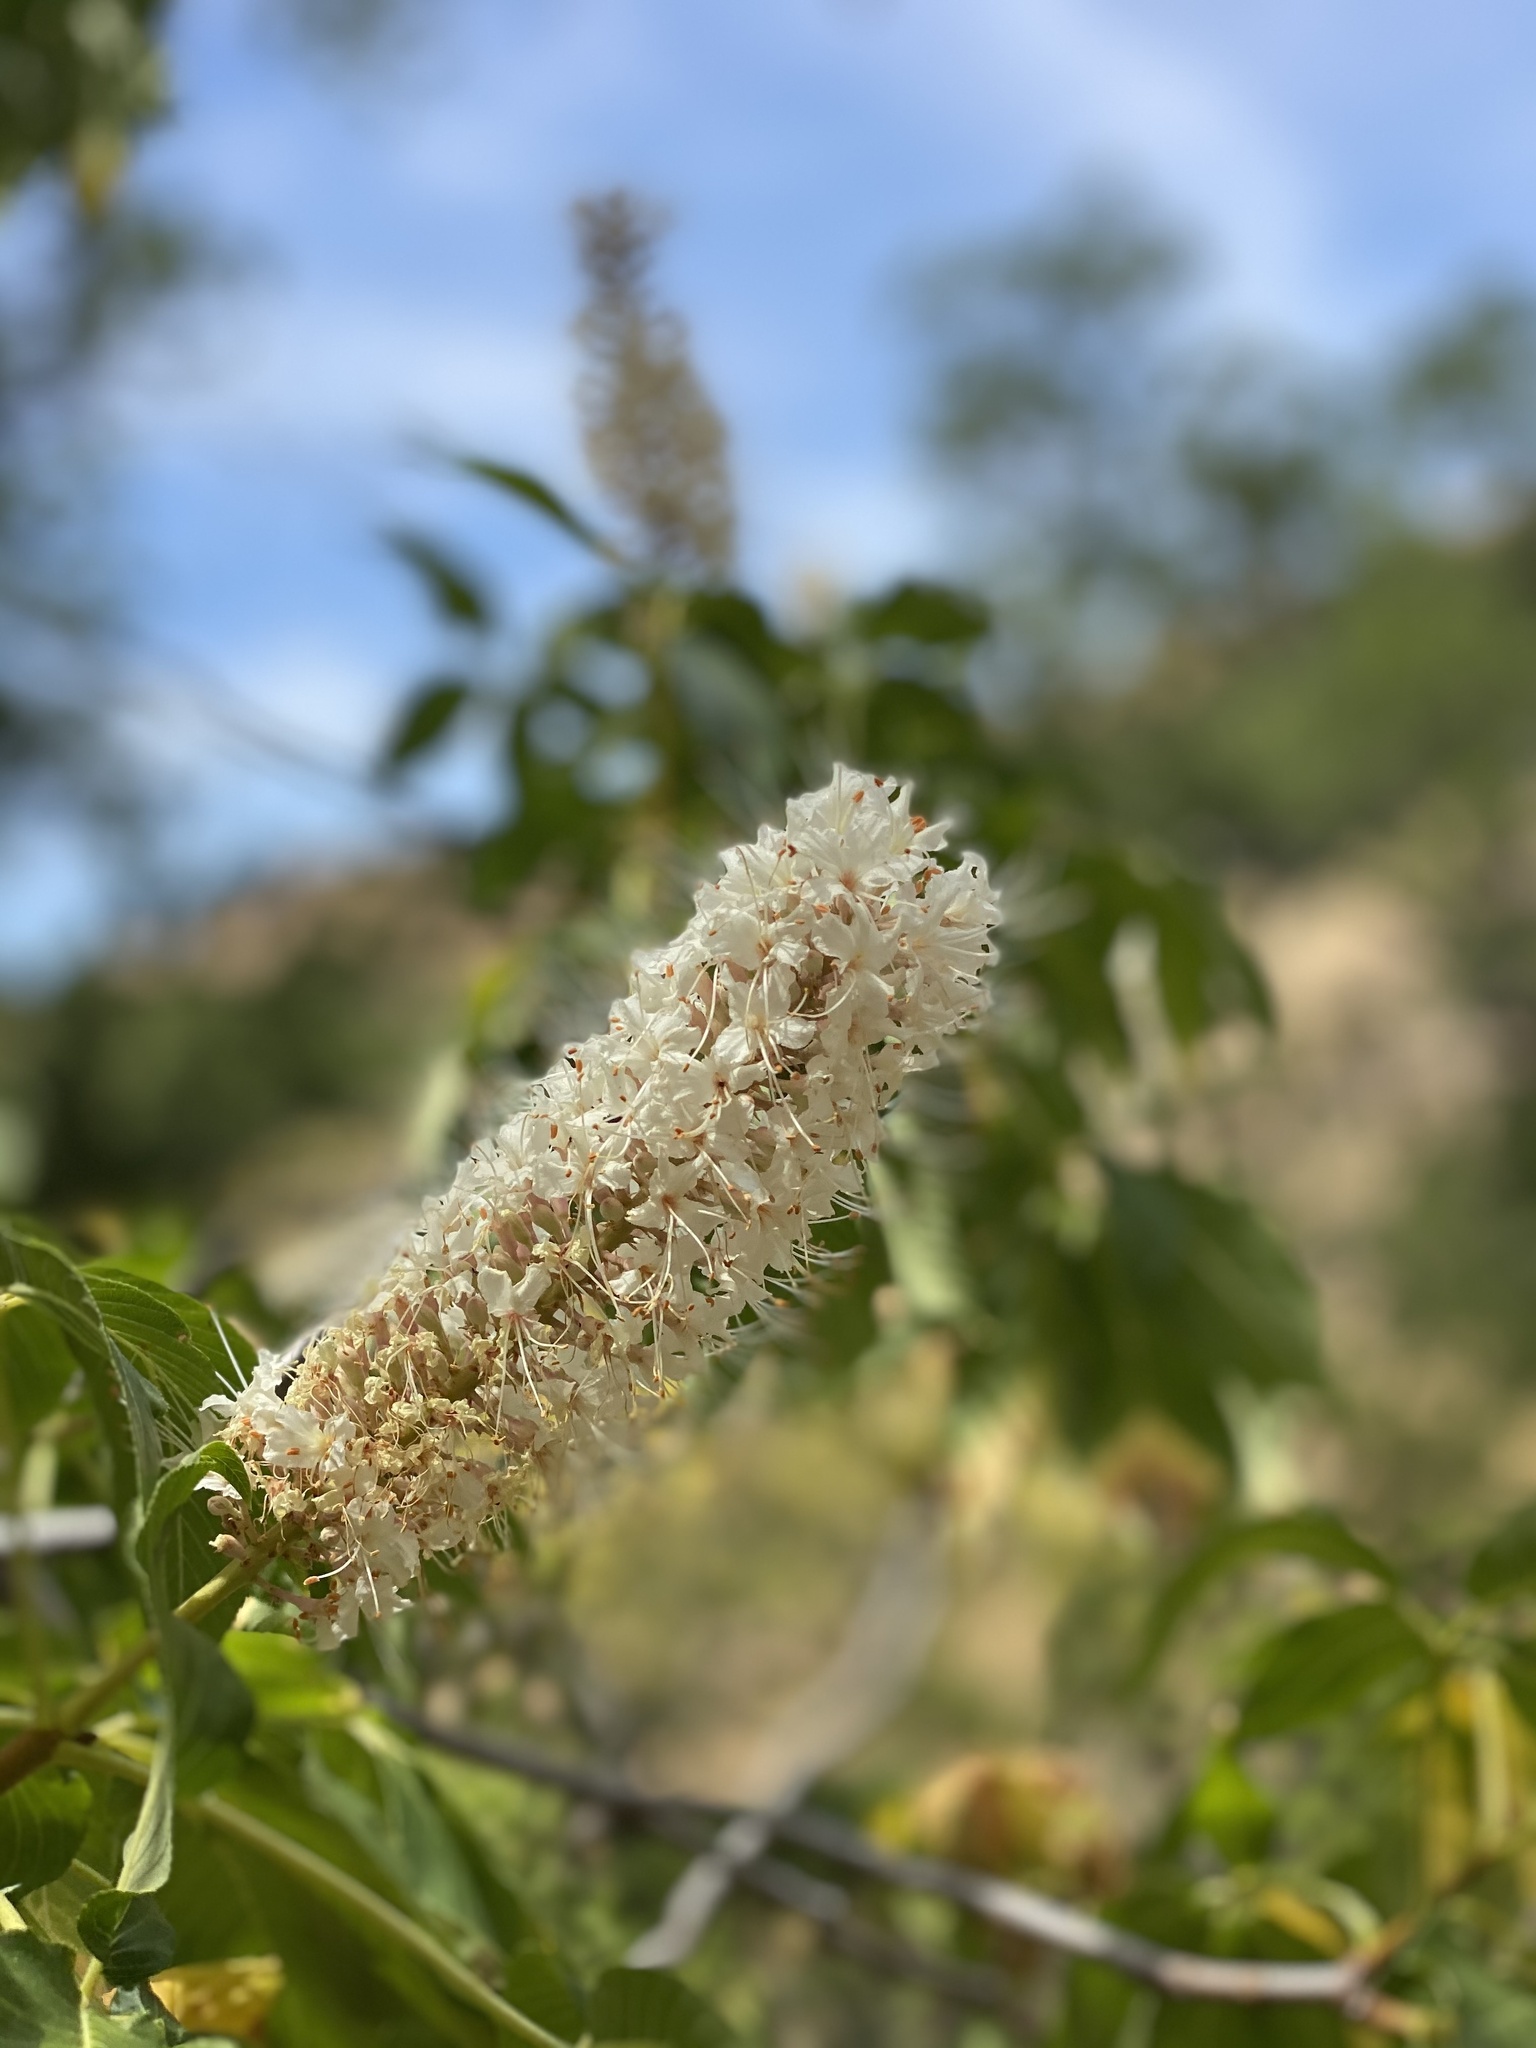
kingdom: Plantae
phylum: Tracheophyta
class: Magnoliopsida
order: Sapindales
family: Sapindaceae
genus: Aesculus
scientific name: Aesculus californica
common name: California buckeye
